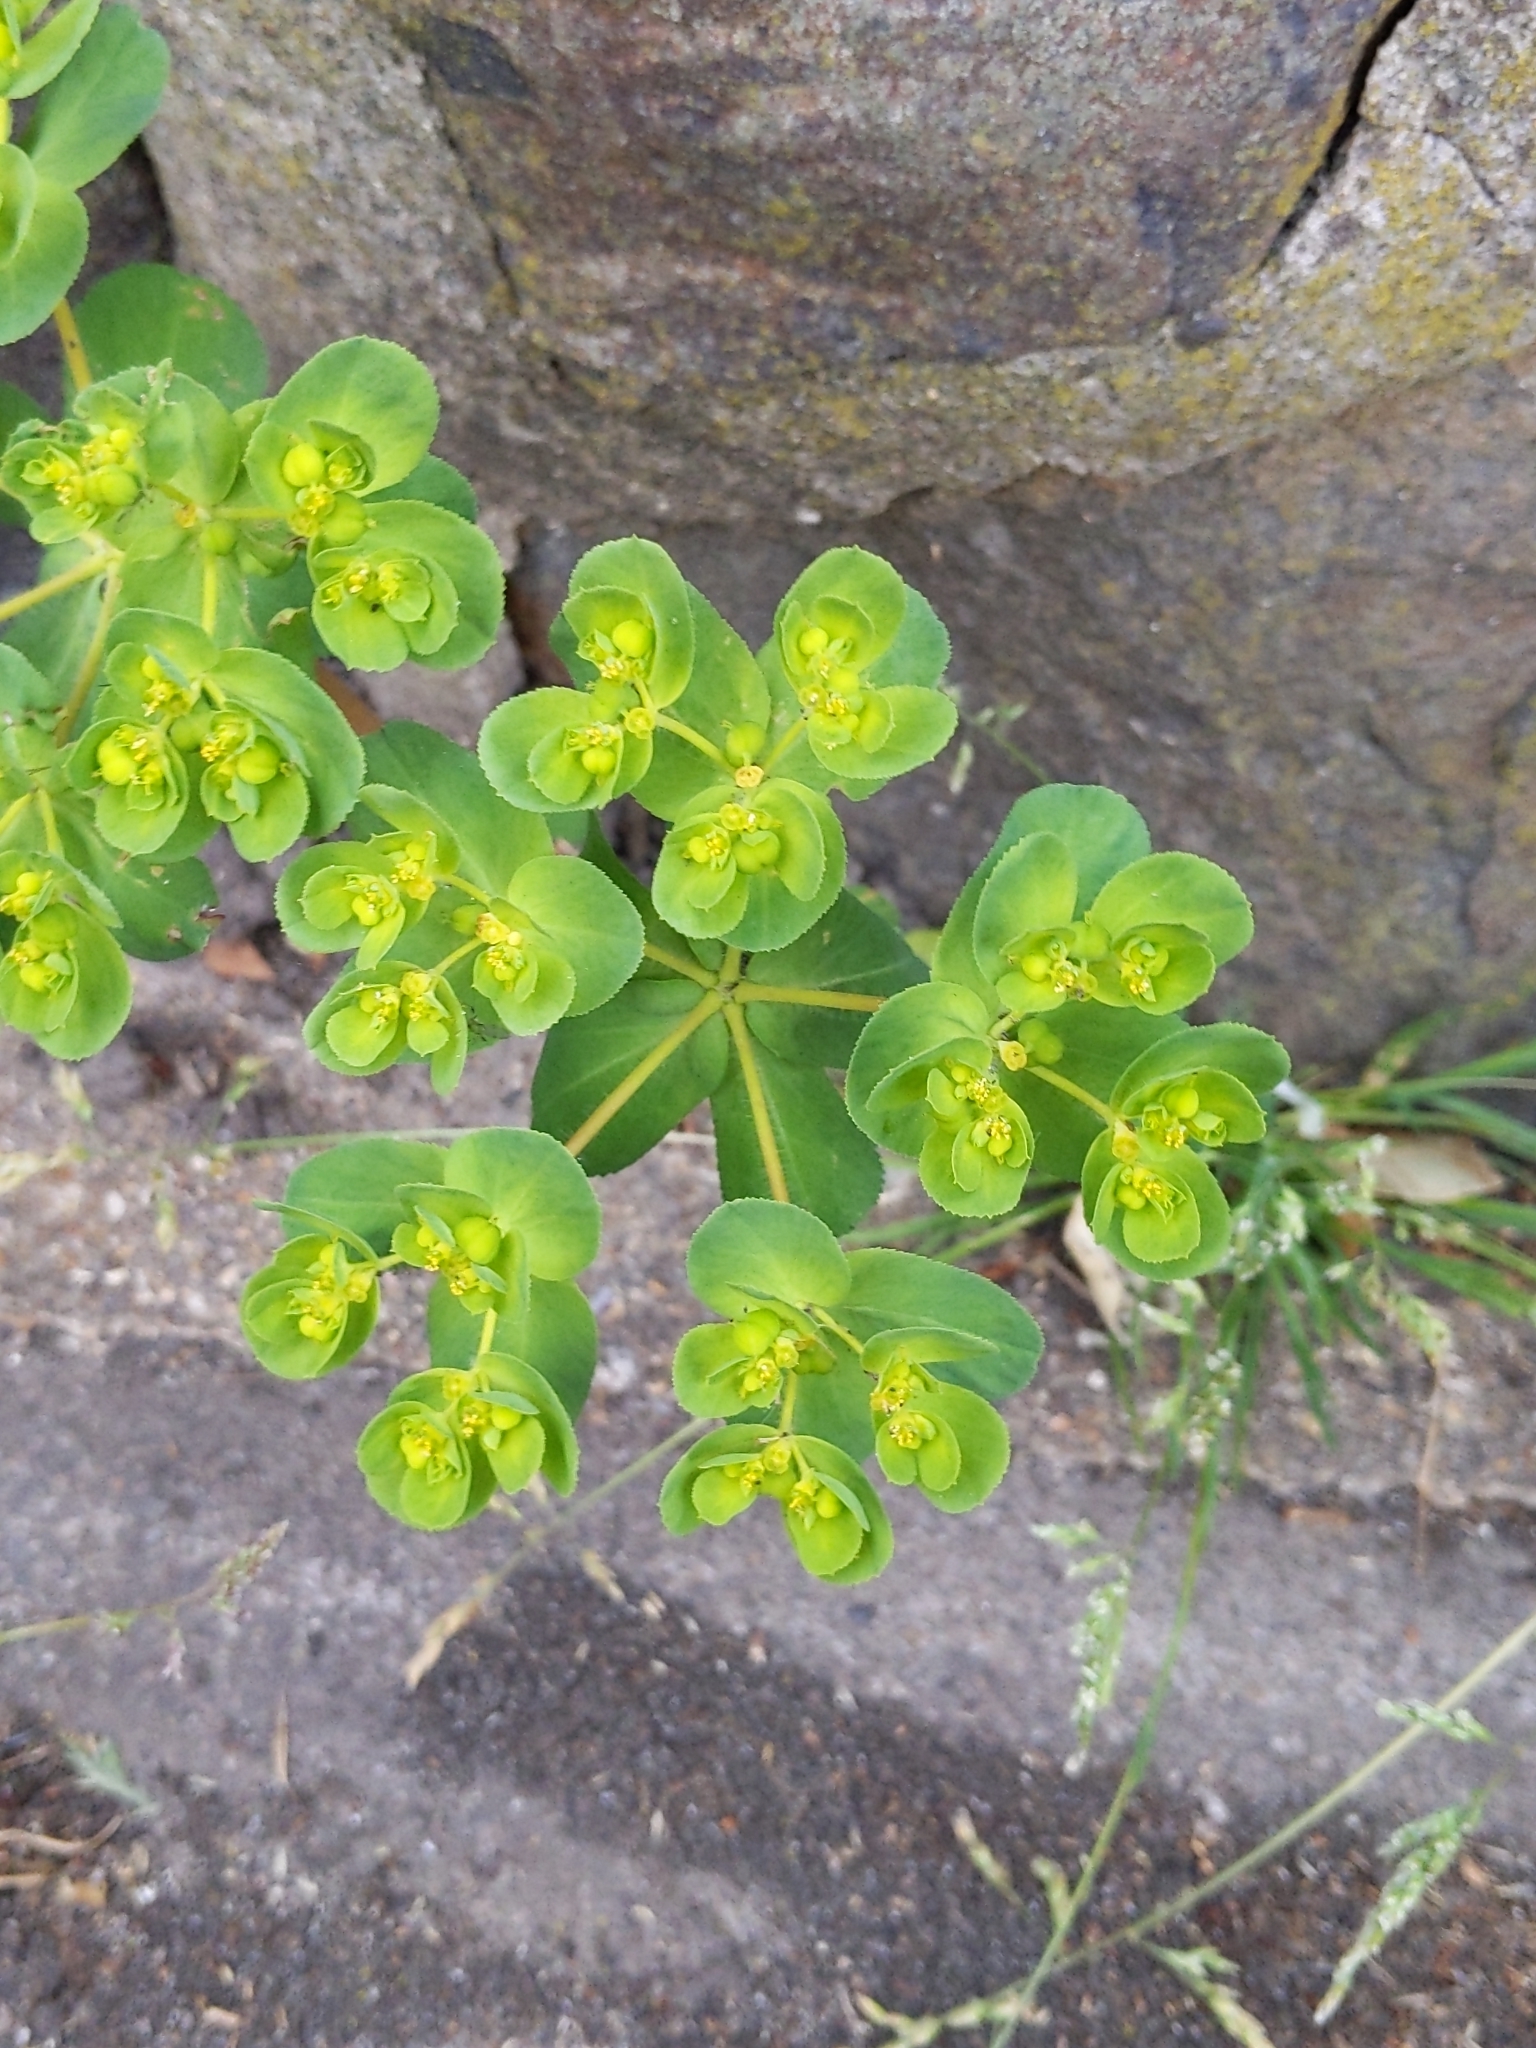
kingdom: Plantae
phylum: Tracheophyta
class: Magnoliopsida
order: Malpighiales
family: Euphorbiaceae
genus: Euphorbia
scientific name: Euphorbia helioscopia
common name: Sun spurge
